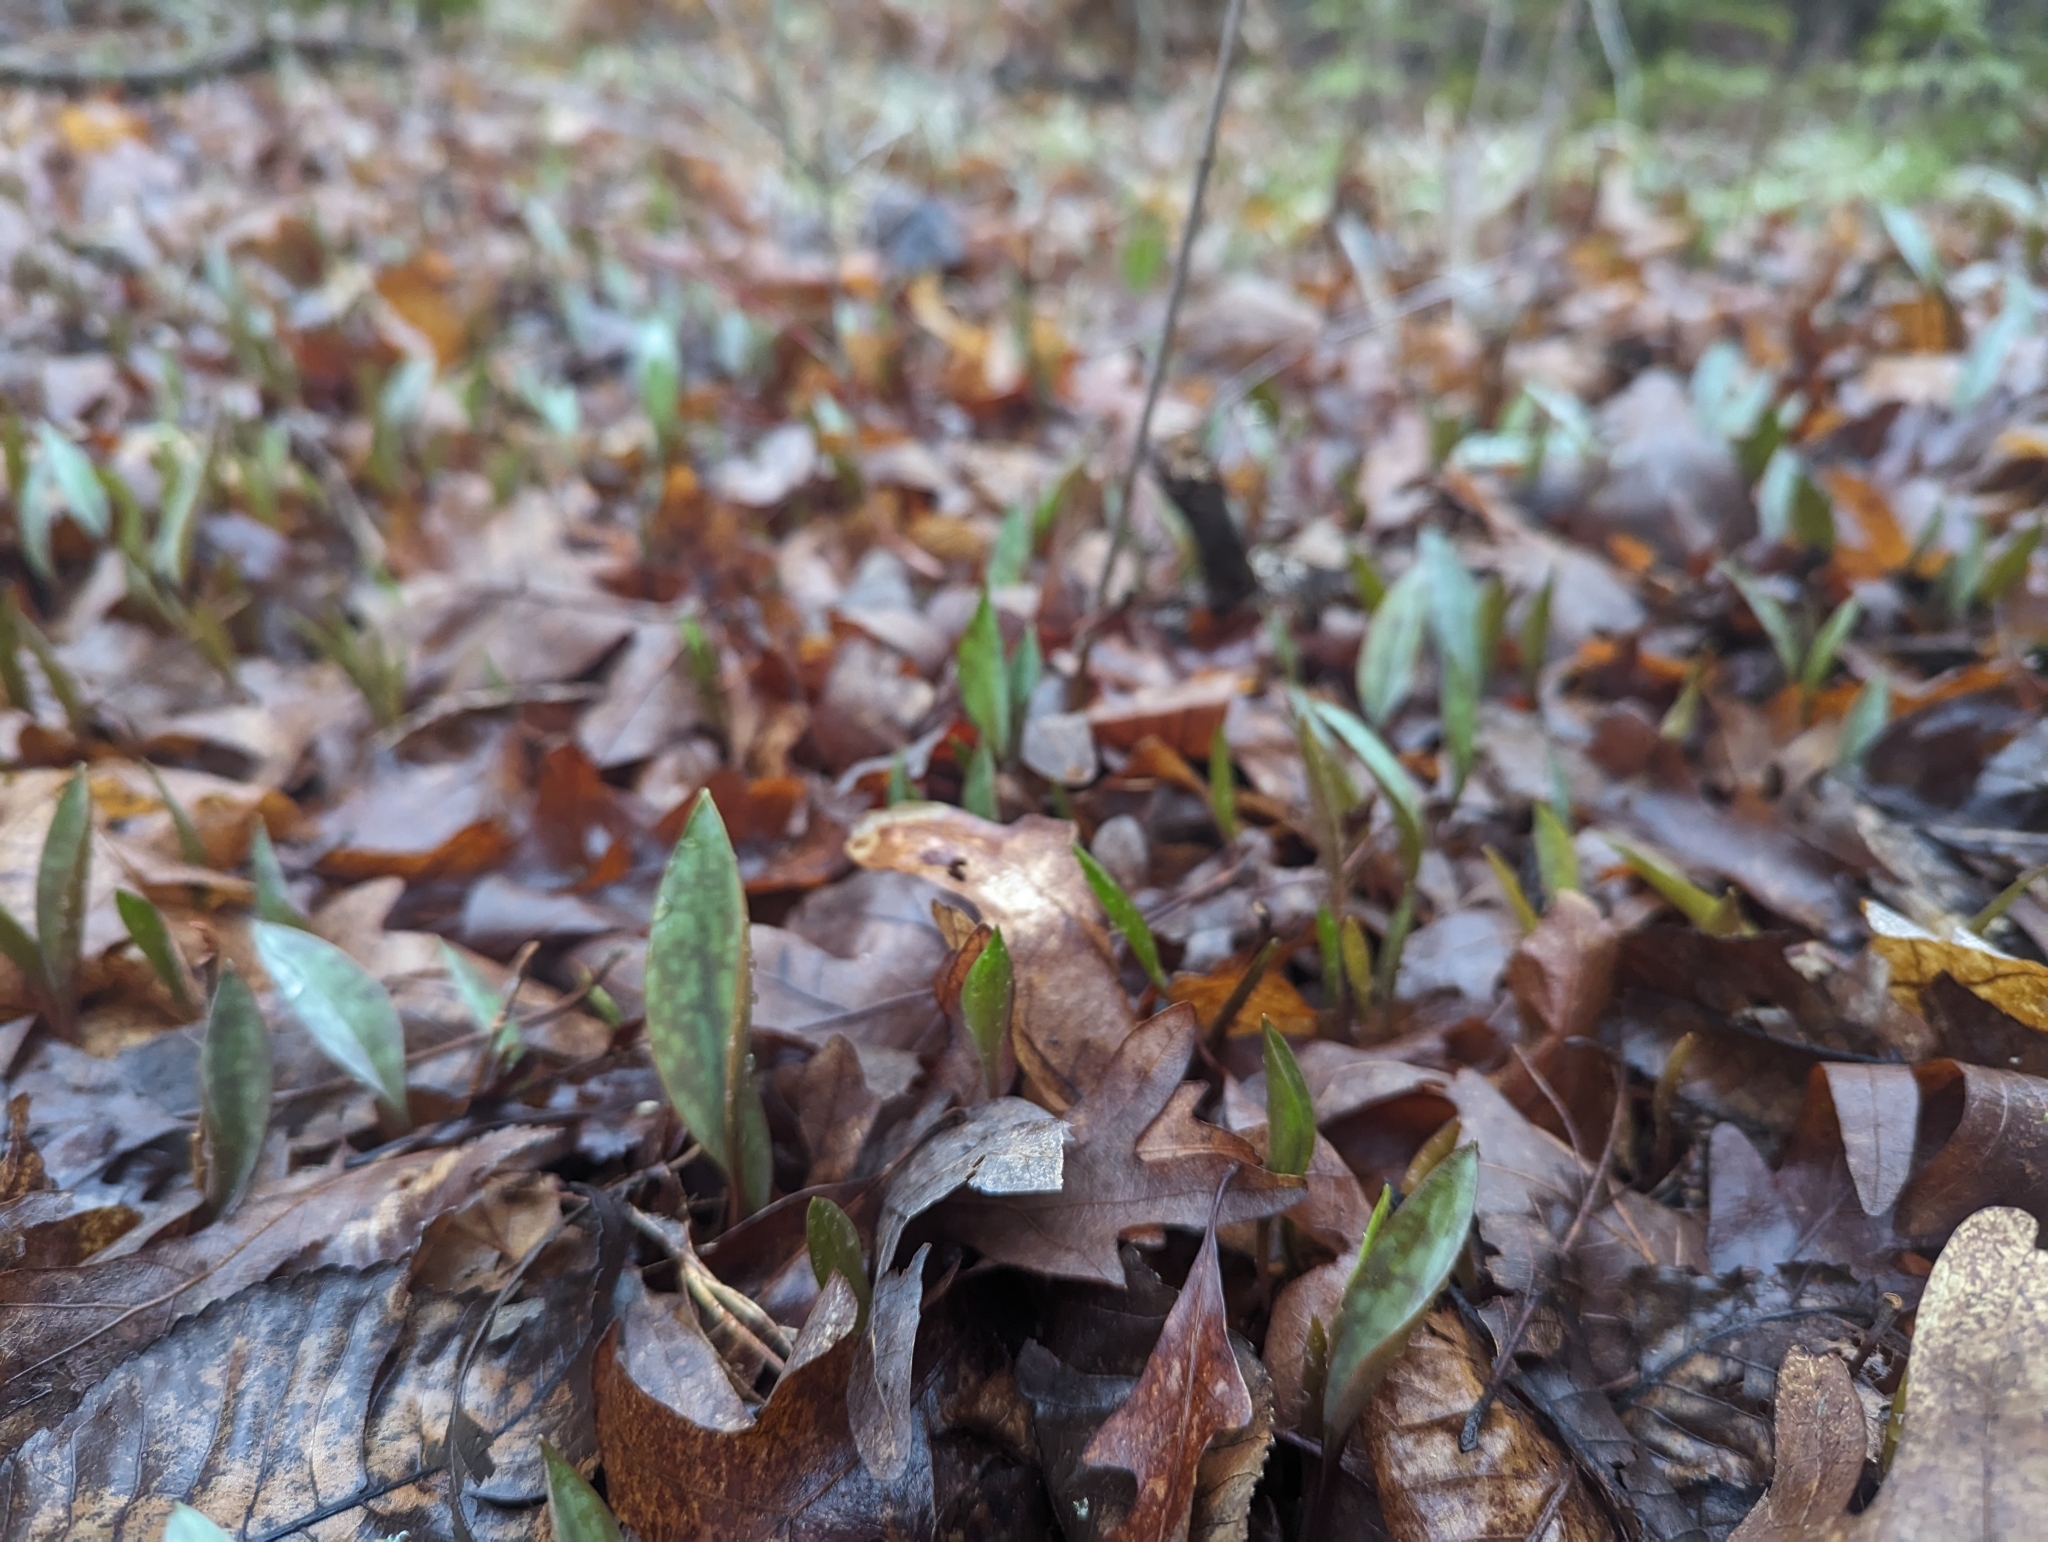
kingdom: Plantae
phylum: Tracheophyta
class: Liliopsida
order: Liliales
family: Liliaceae
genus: Erythronium
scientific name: Erythronium americanum
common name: Yellow adder's-tongue
